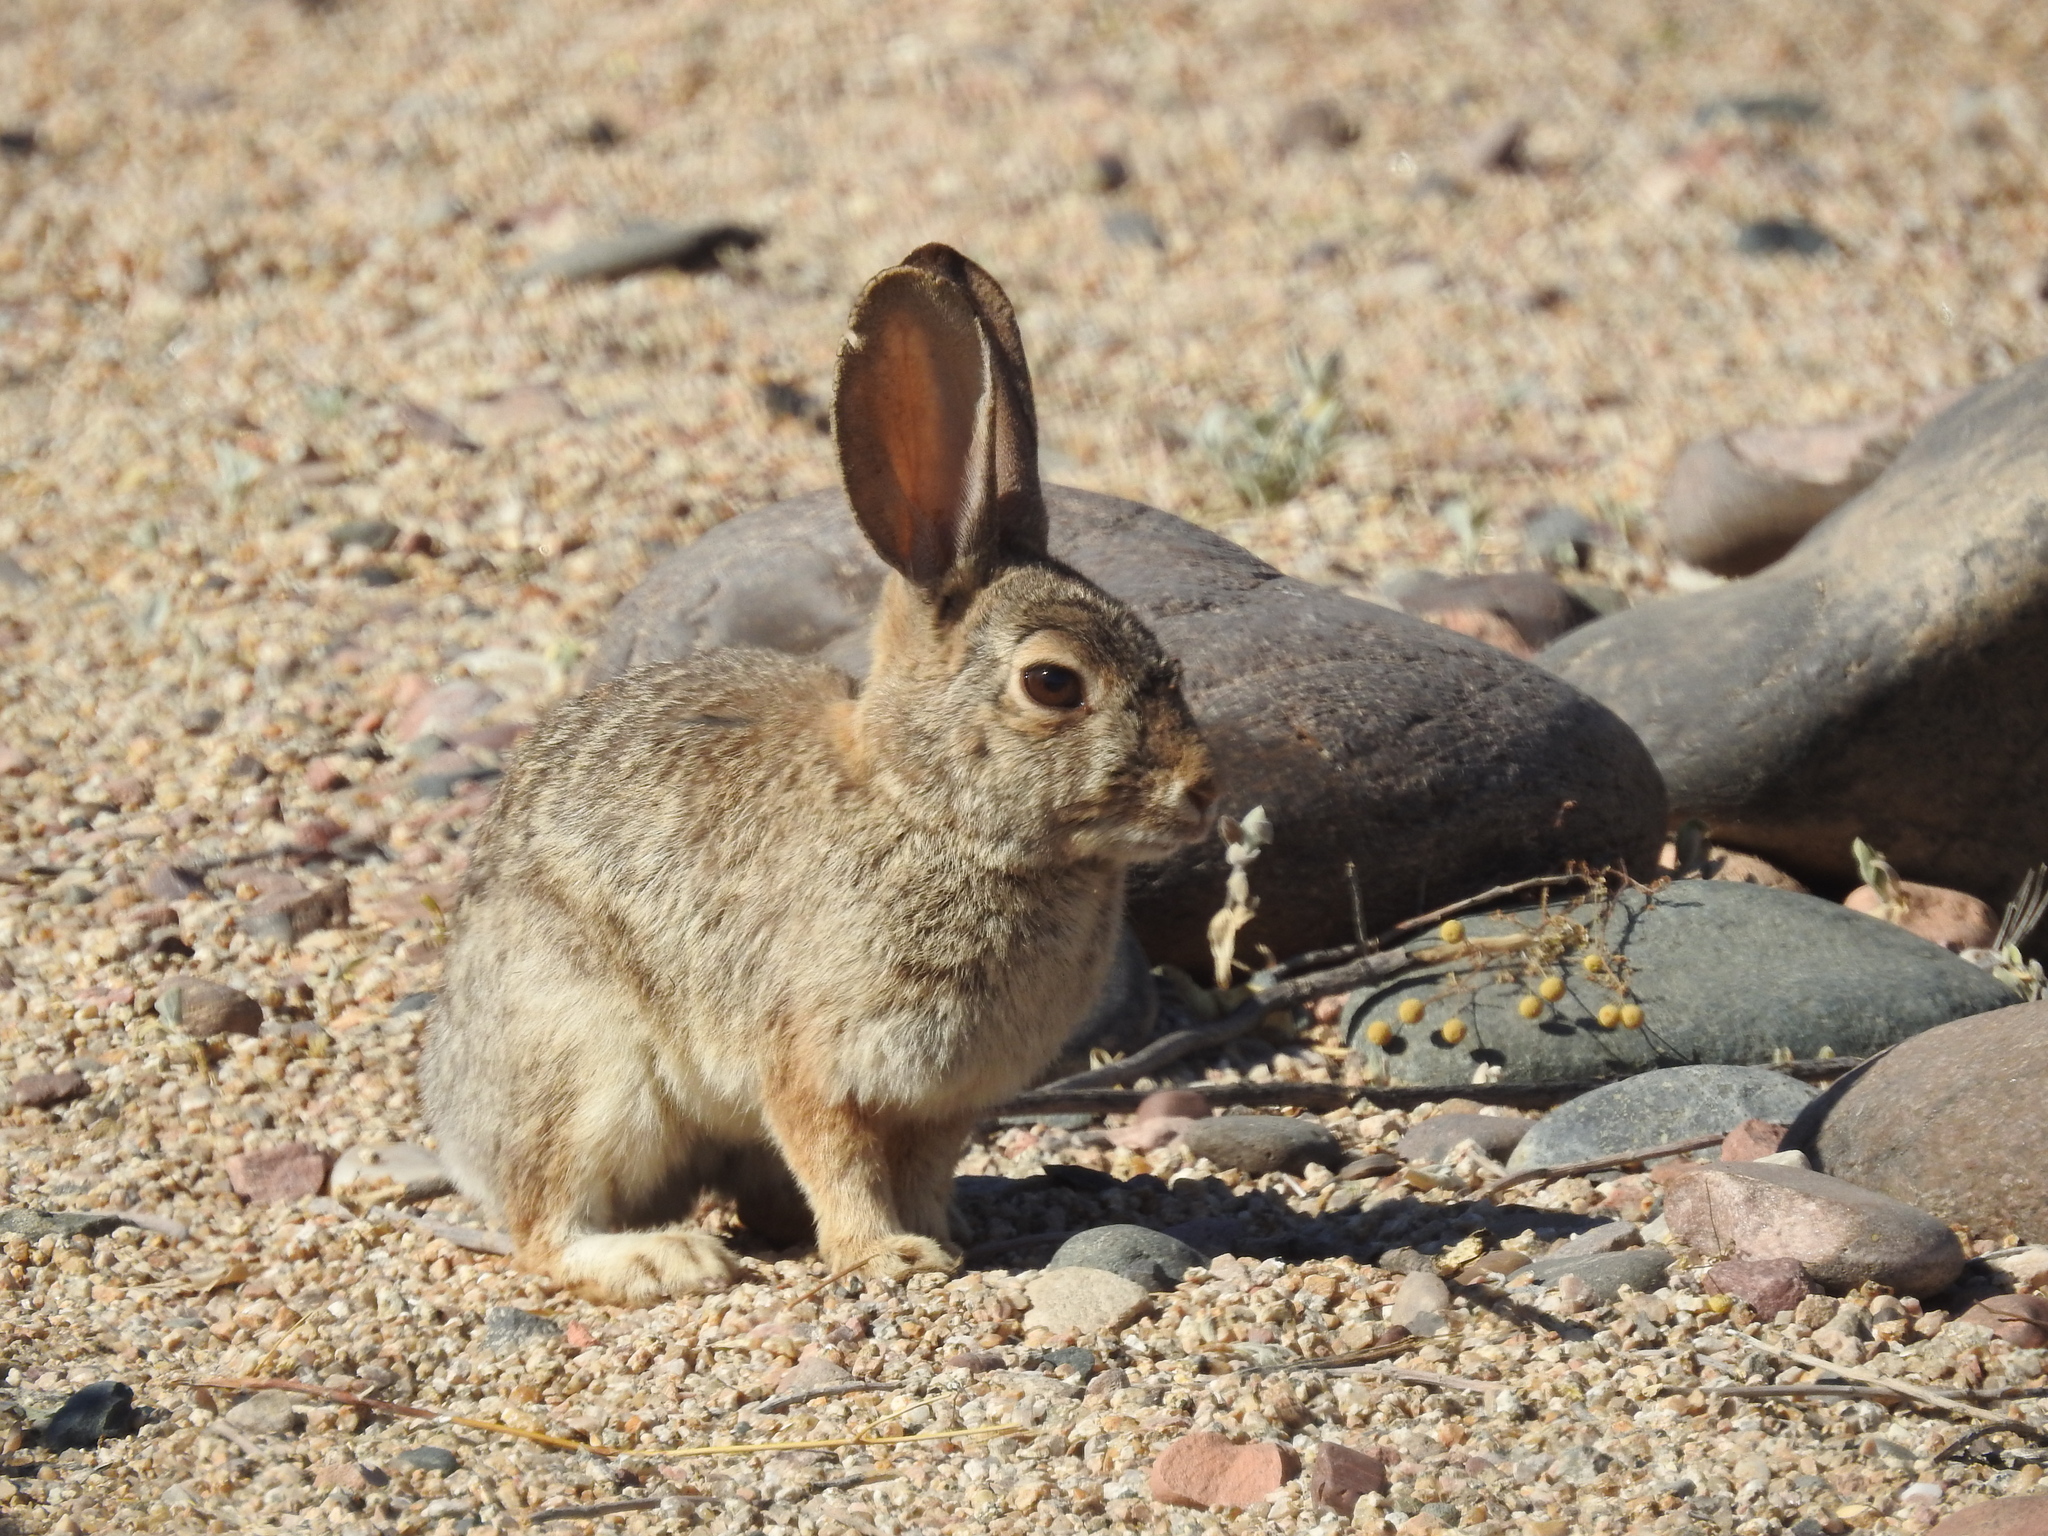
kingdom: Animalia
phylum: Chordata
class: Mammalia
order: Lagomorpha
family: Leporidae
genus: Sylvilagus
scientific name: Sylvilagus audubonii
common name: Desert cottontail
